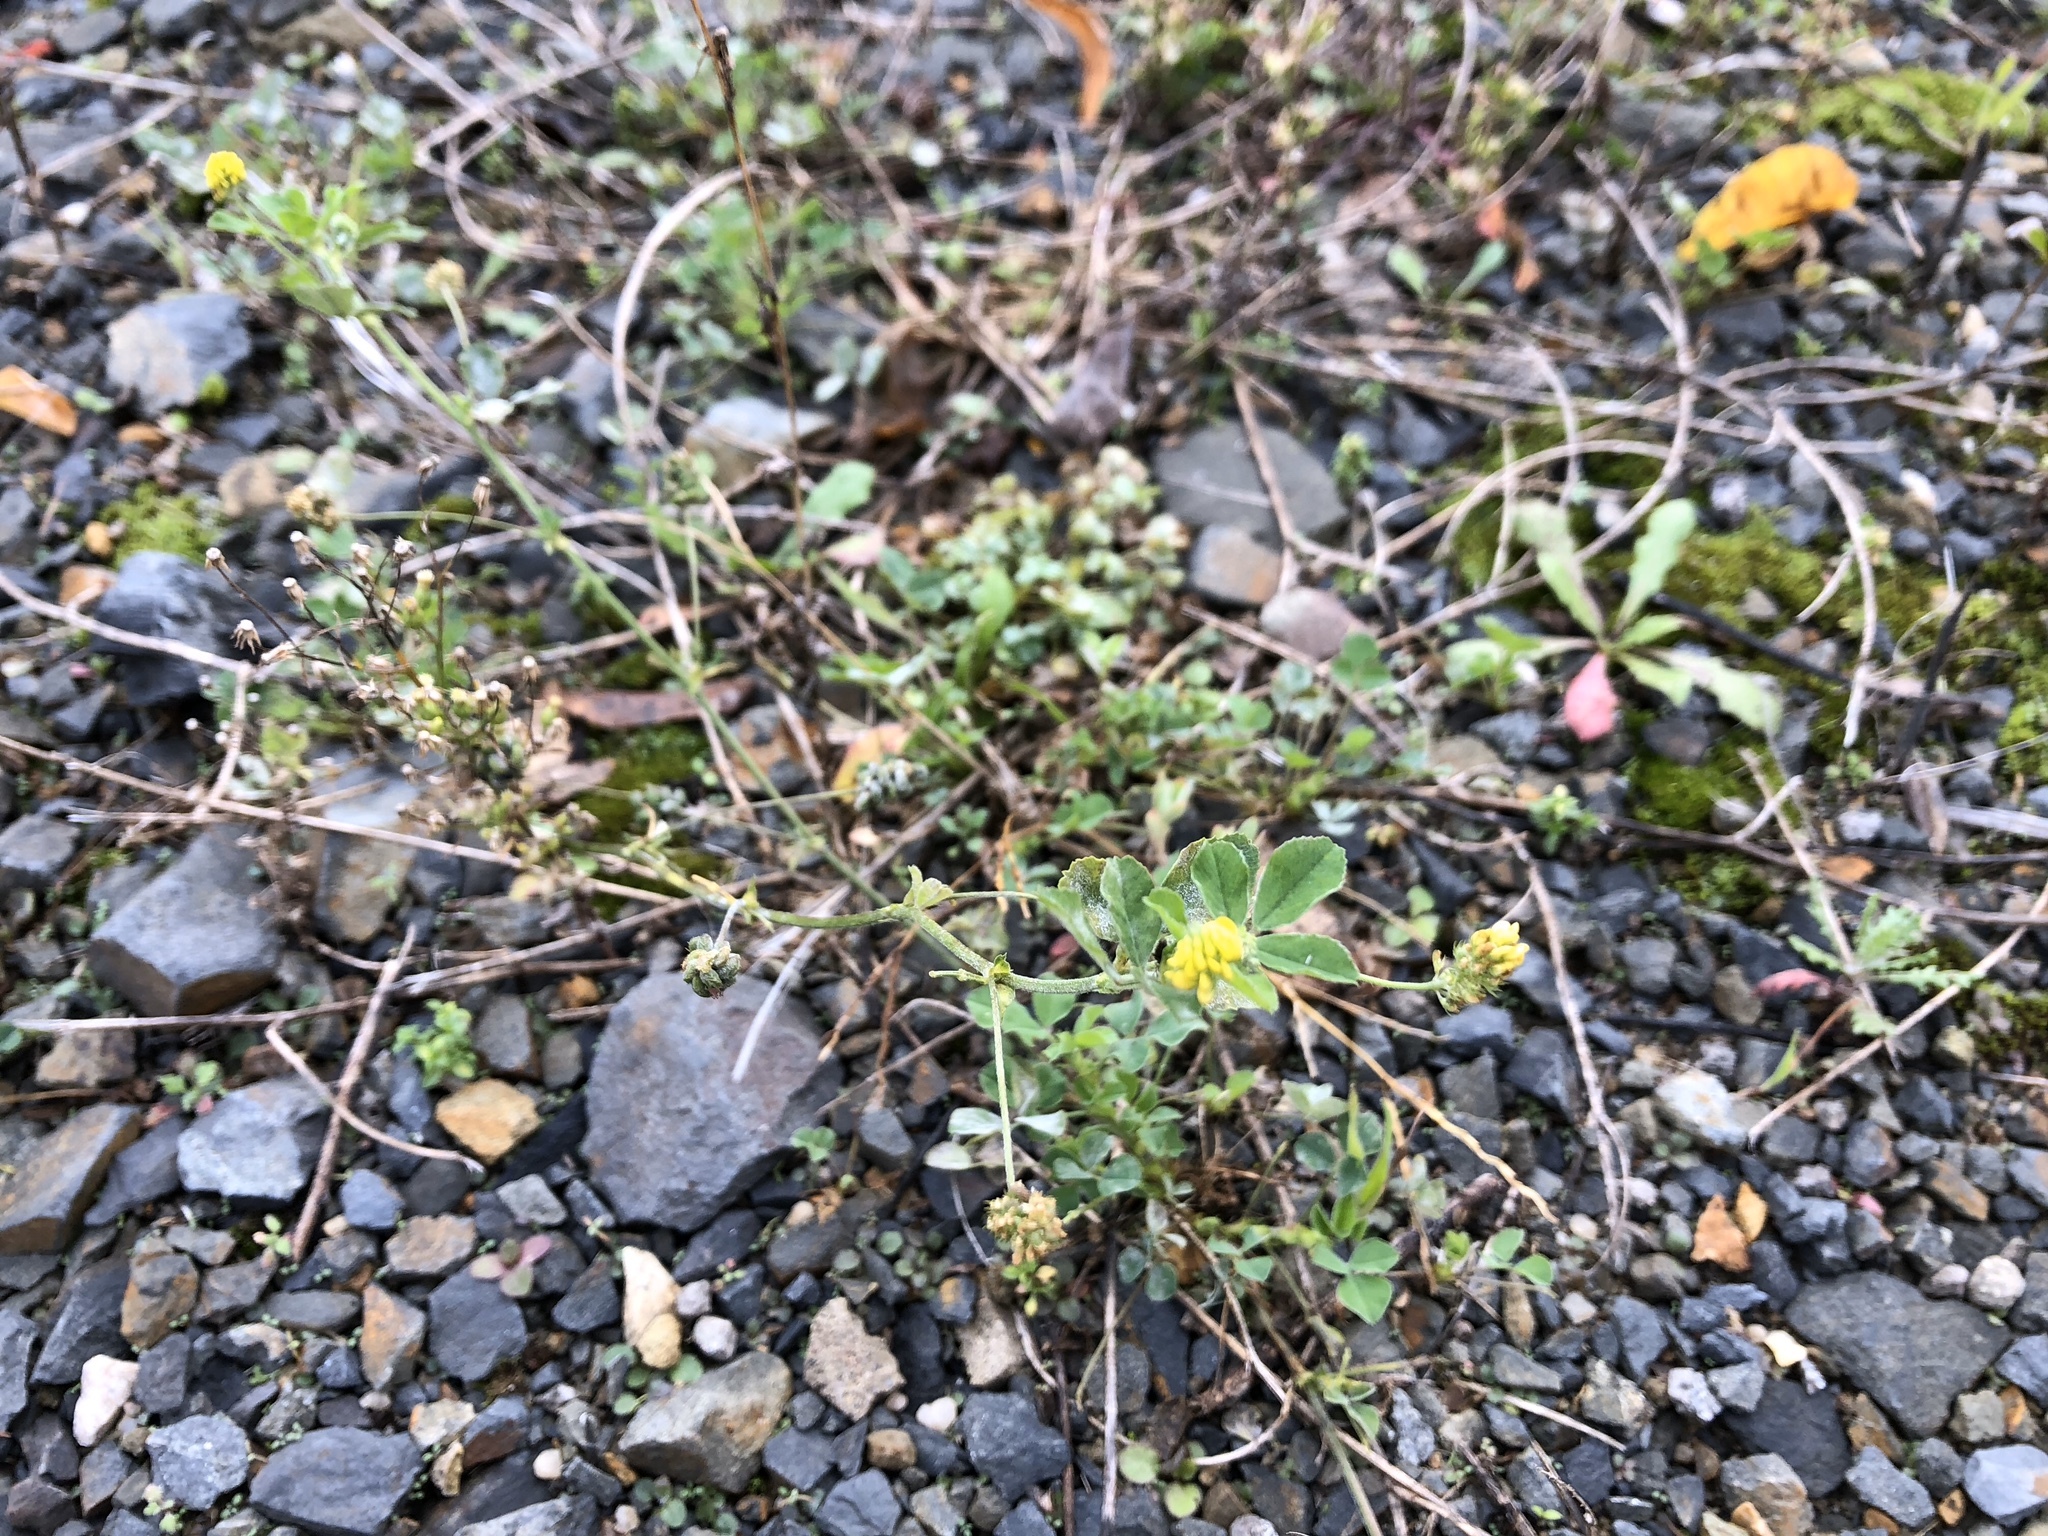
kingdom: Plantae
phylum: Tracheophyta
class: Magnoliopsida
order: Fabales
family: Fabaceae
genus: Medicago
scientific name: Medicago lupulina
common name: Black medick
